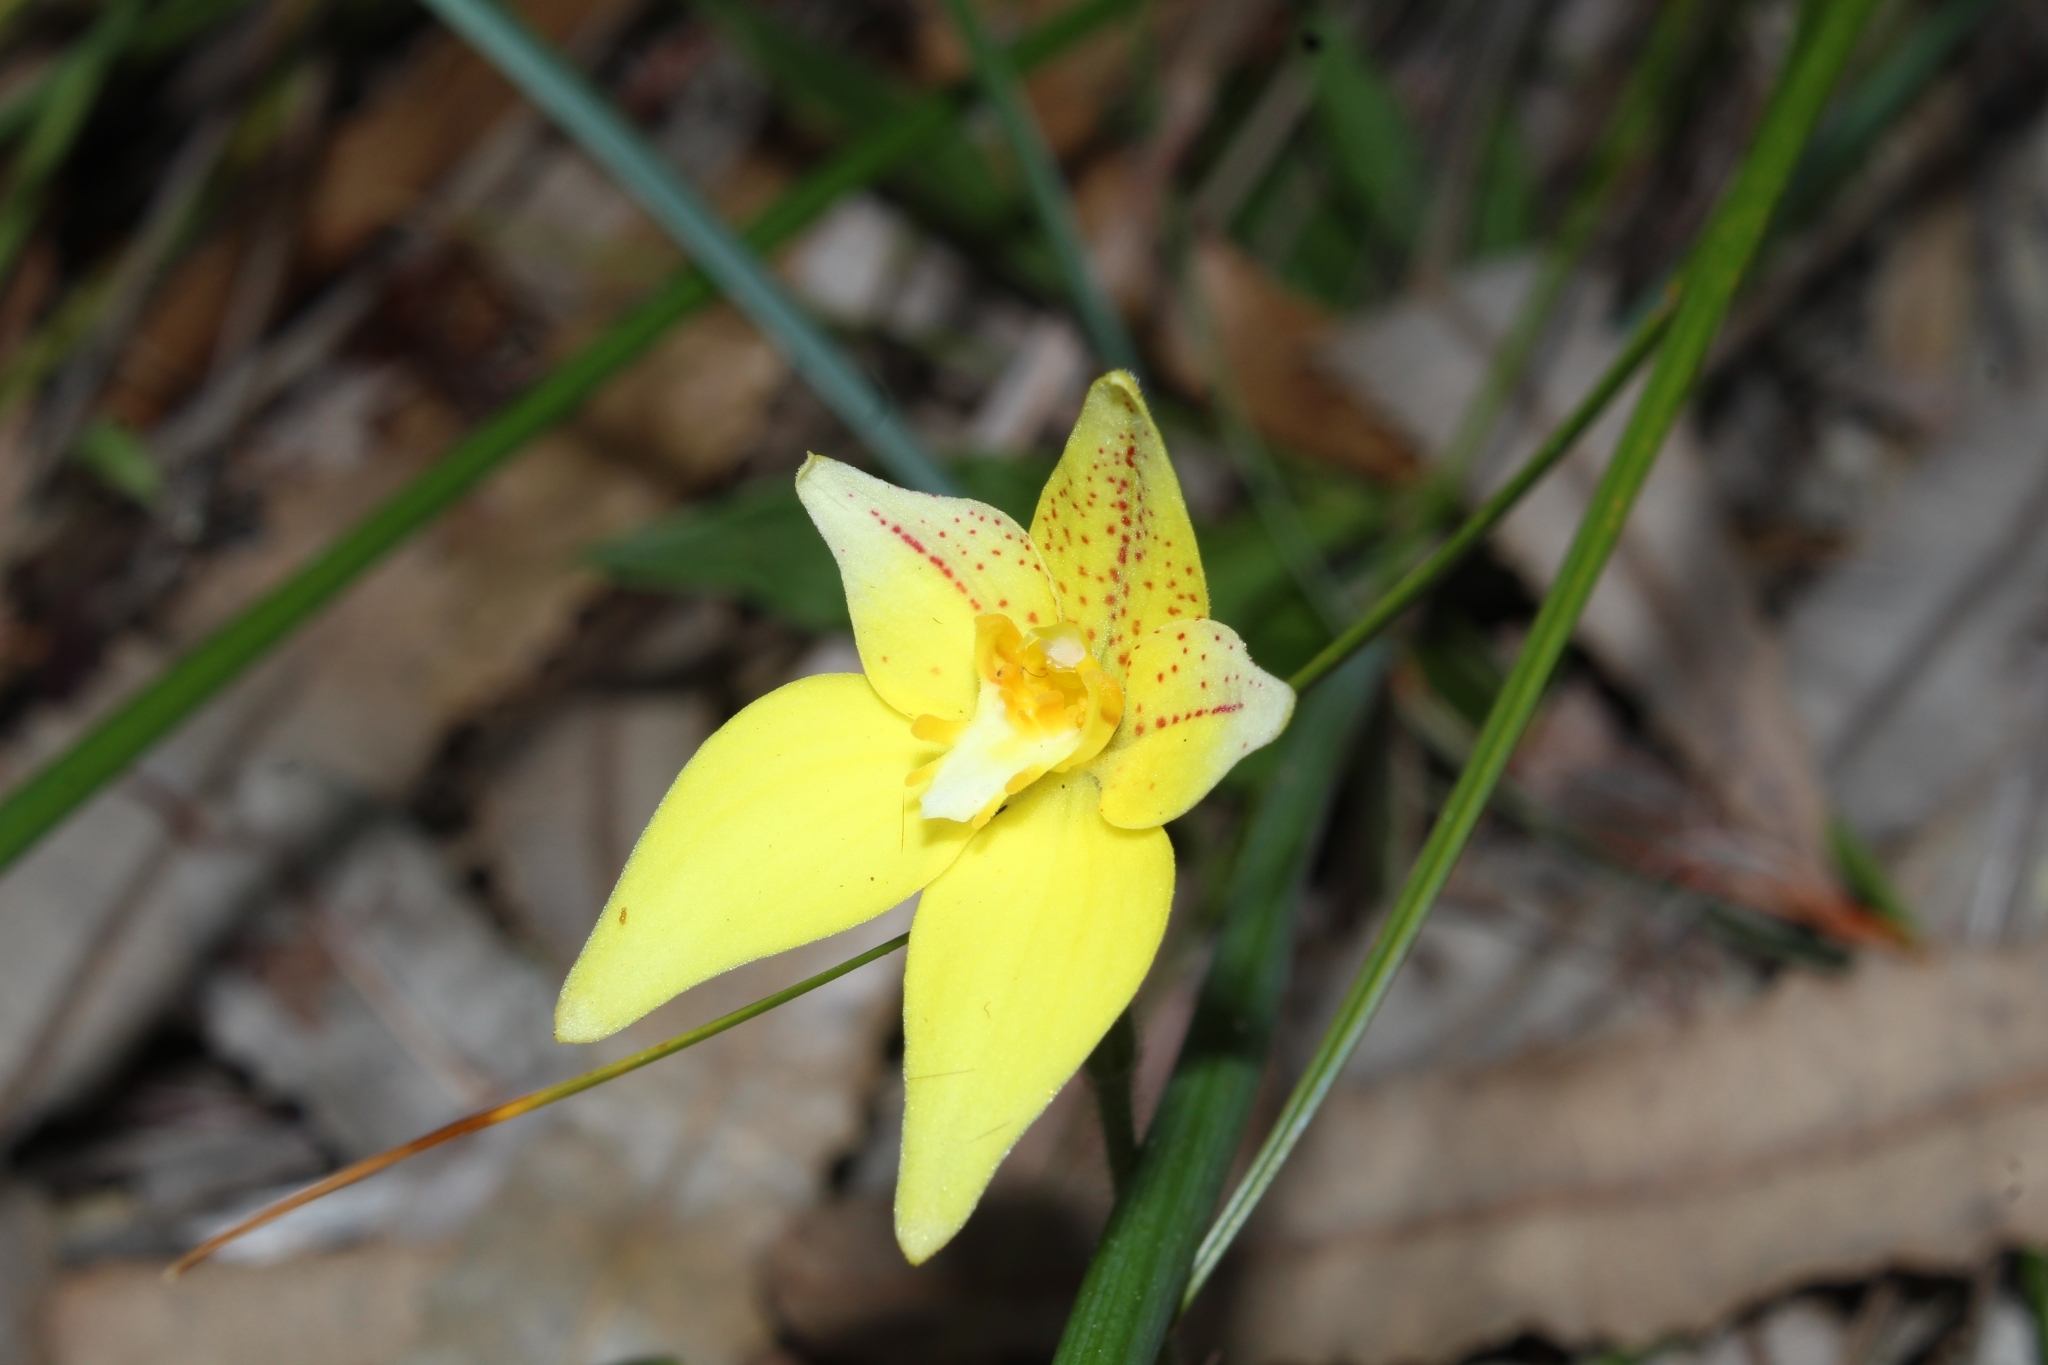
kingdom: Plantae
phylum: Tracheophyta
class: Liliopsida
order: Asparagales
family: Orchidaceae
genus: Caladenia
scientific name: Caladenia flava
